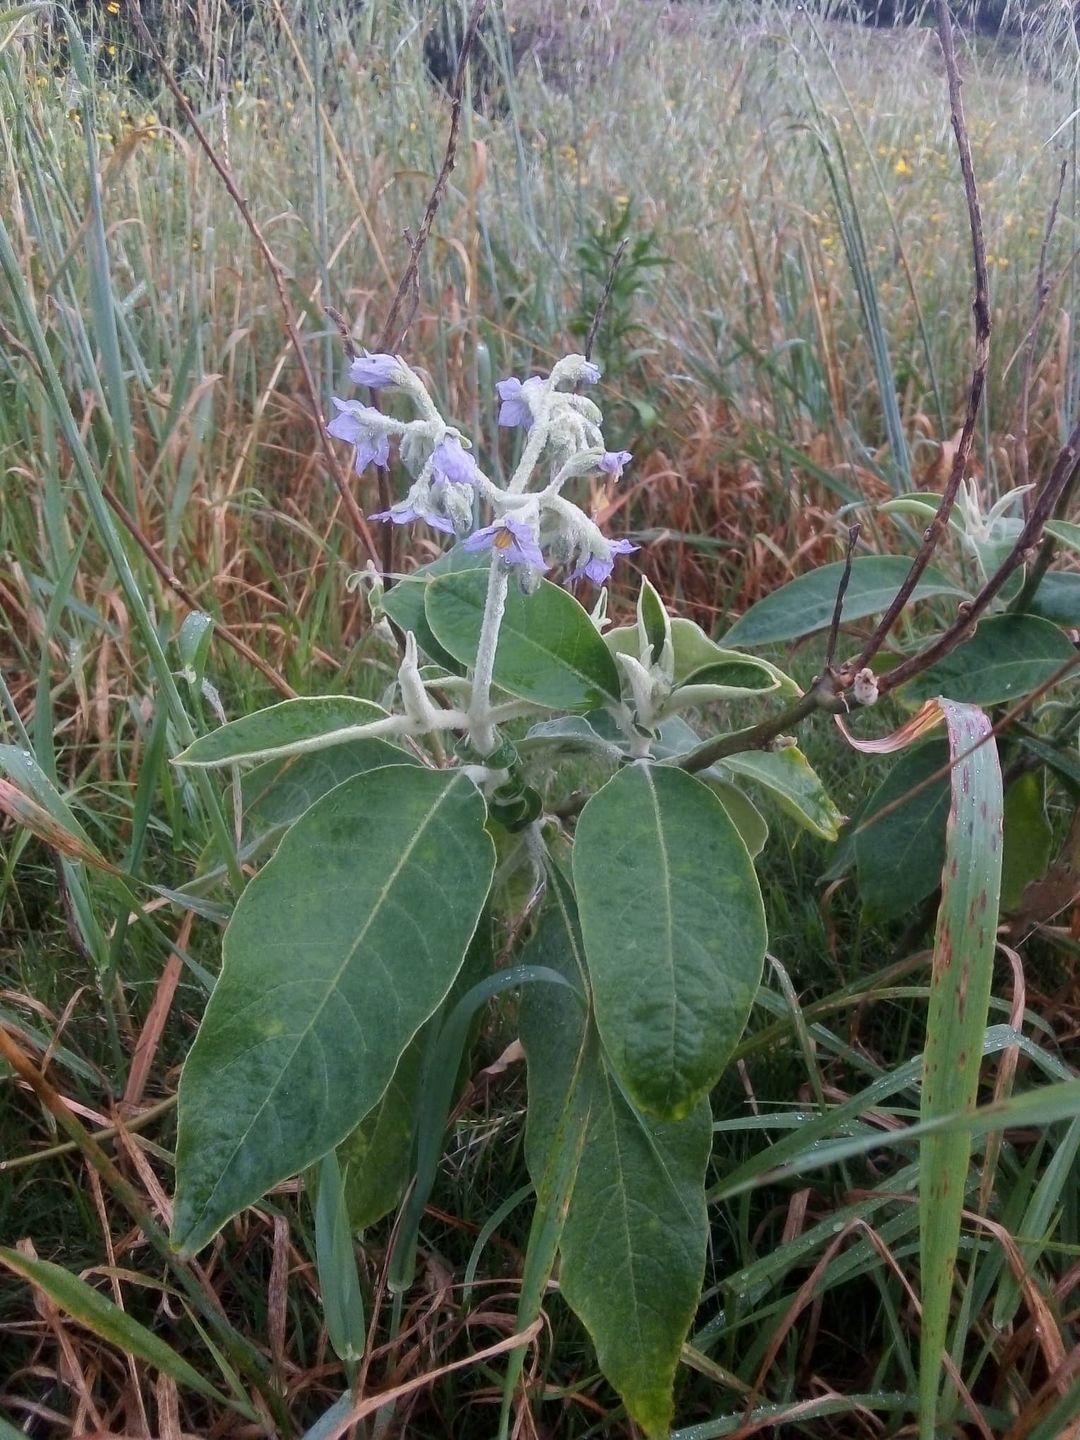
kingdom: Plantae
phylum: Tracheophyta
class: Magnoliopsida
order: Solanales
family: Solanaceae
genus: Solanum
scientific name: Solanum mauritianum
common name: Earleaf nightshade
